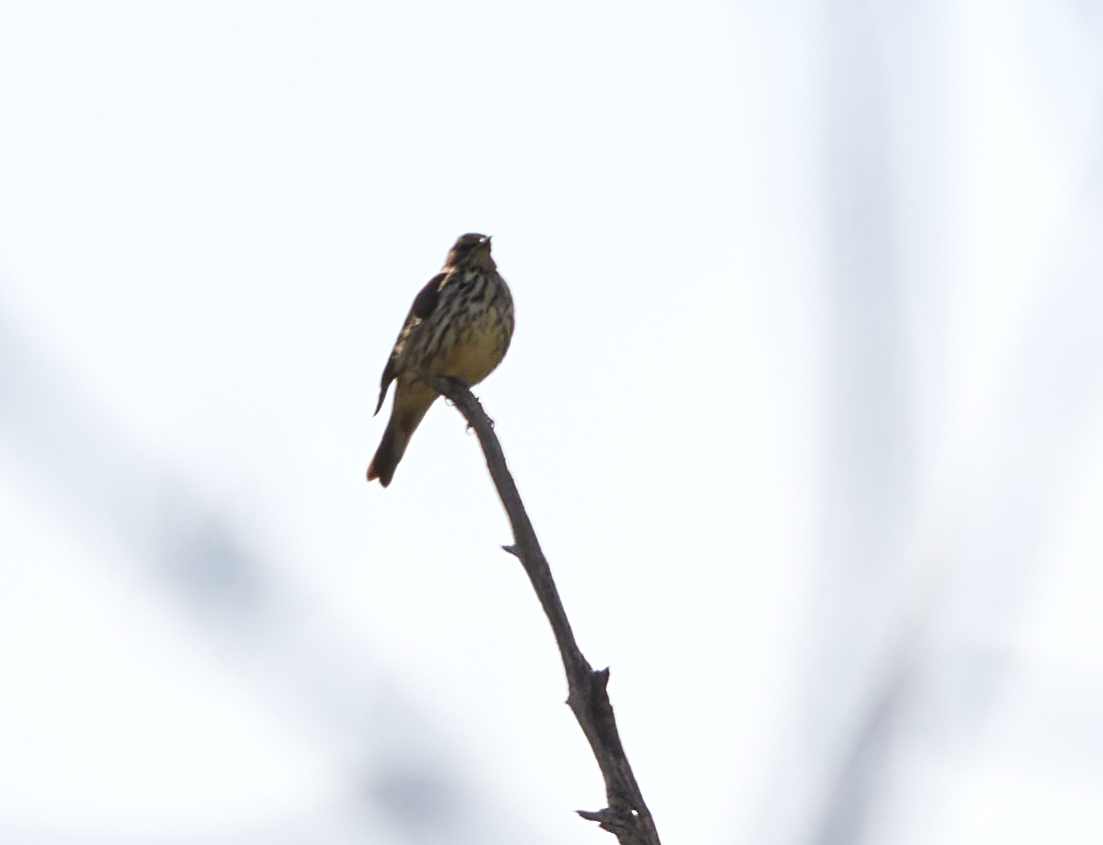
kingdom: Animalia
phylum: Chordata
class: Aves
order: Passeriformes
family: Parulidae
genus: Parkesia
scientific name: Parkesia noveboracensis
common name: Northern waterthrush
